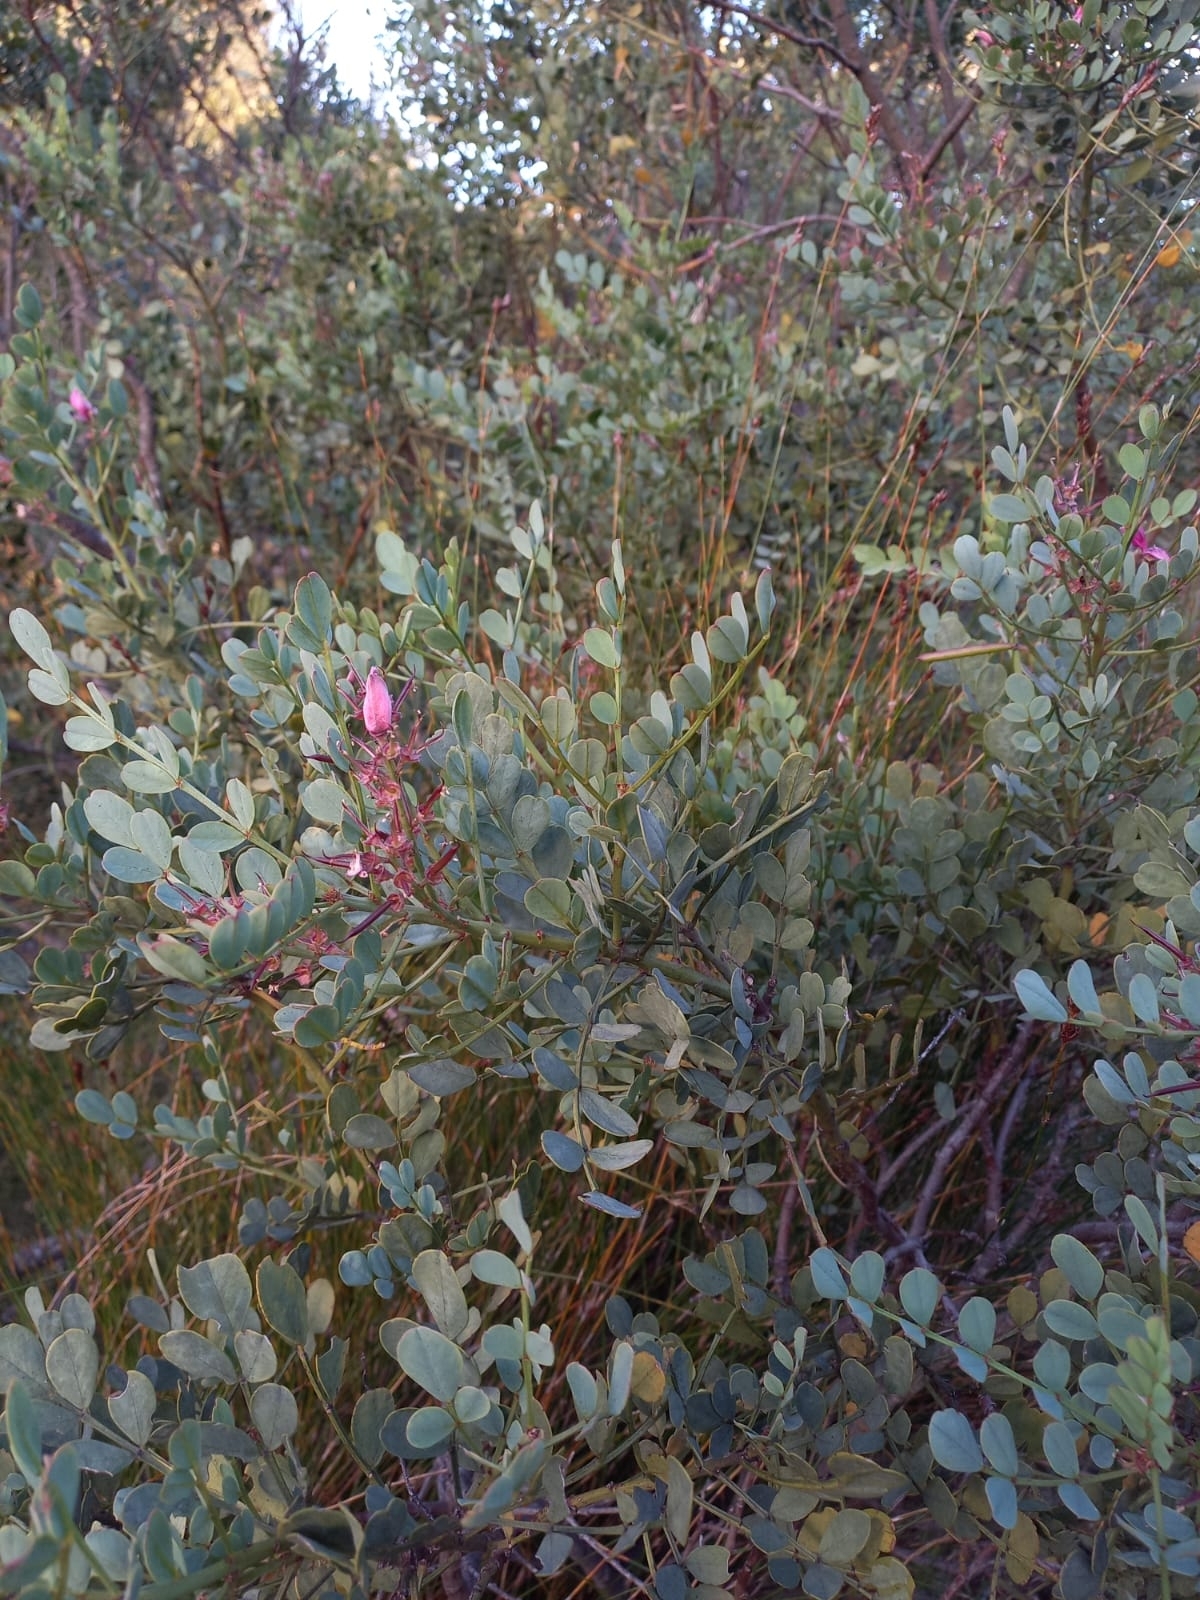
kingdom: Plantae
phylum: Tracheophyta
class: Magnoliopsida
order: Fabales
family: Fabaceae
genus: Indigofera
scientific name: Indigofera frutescens
